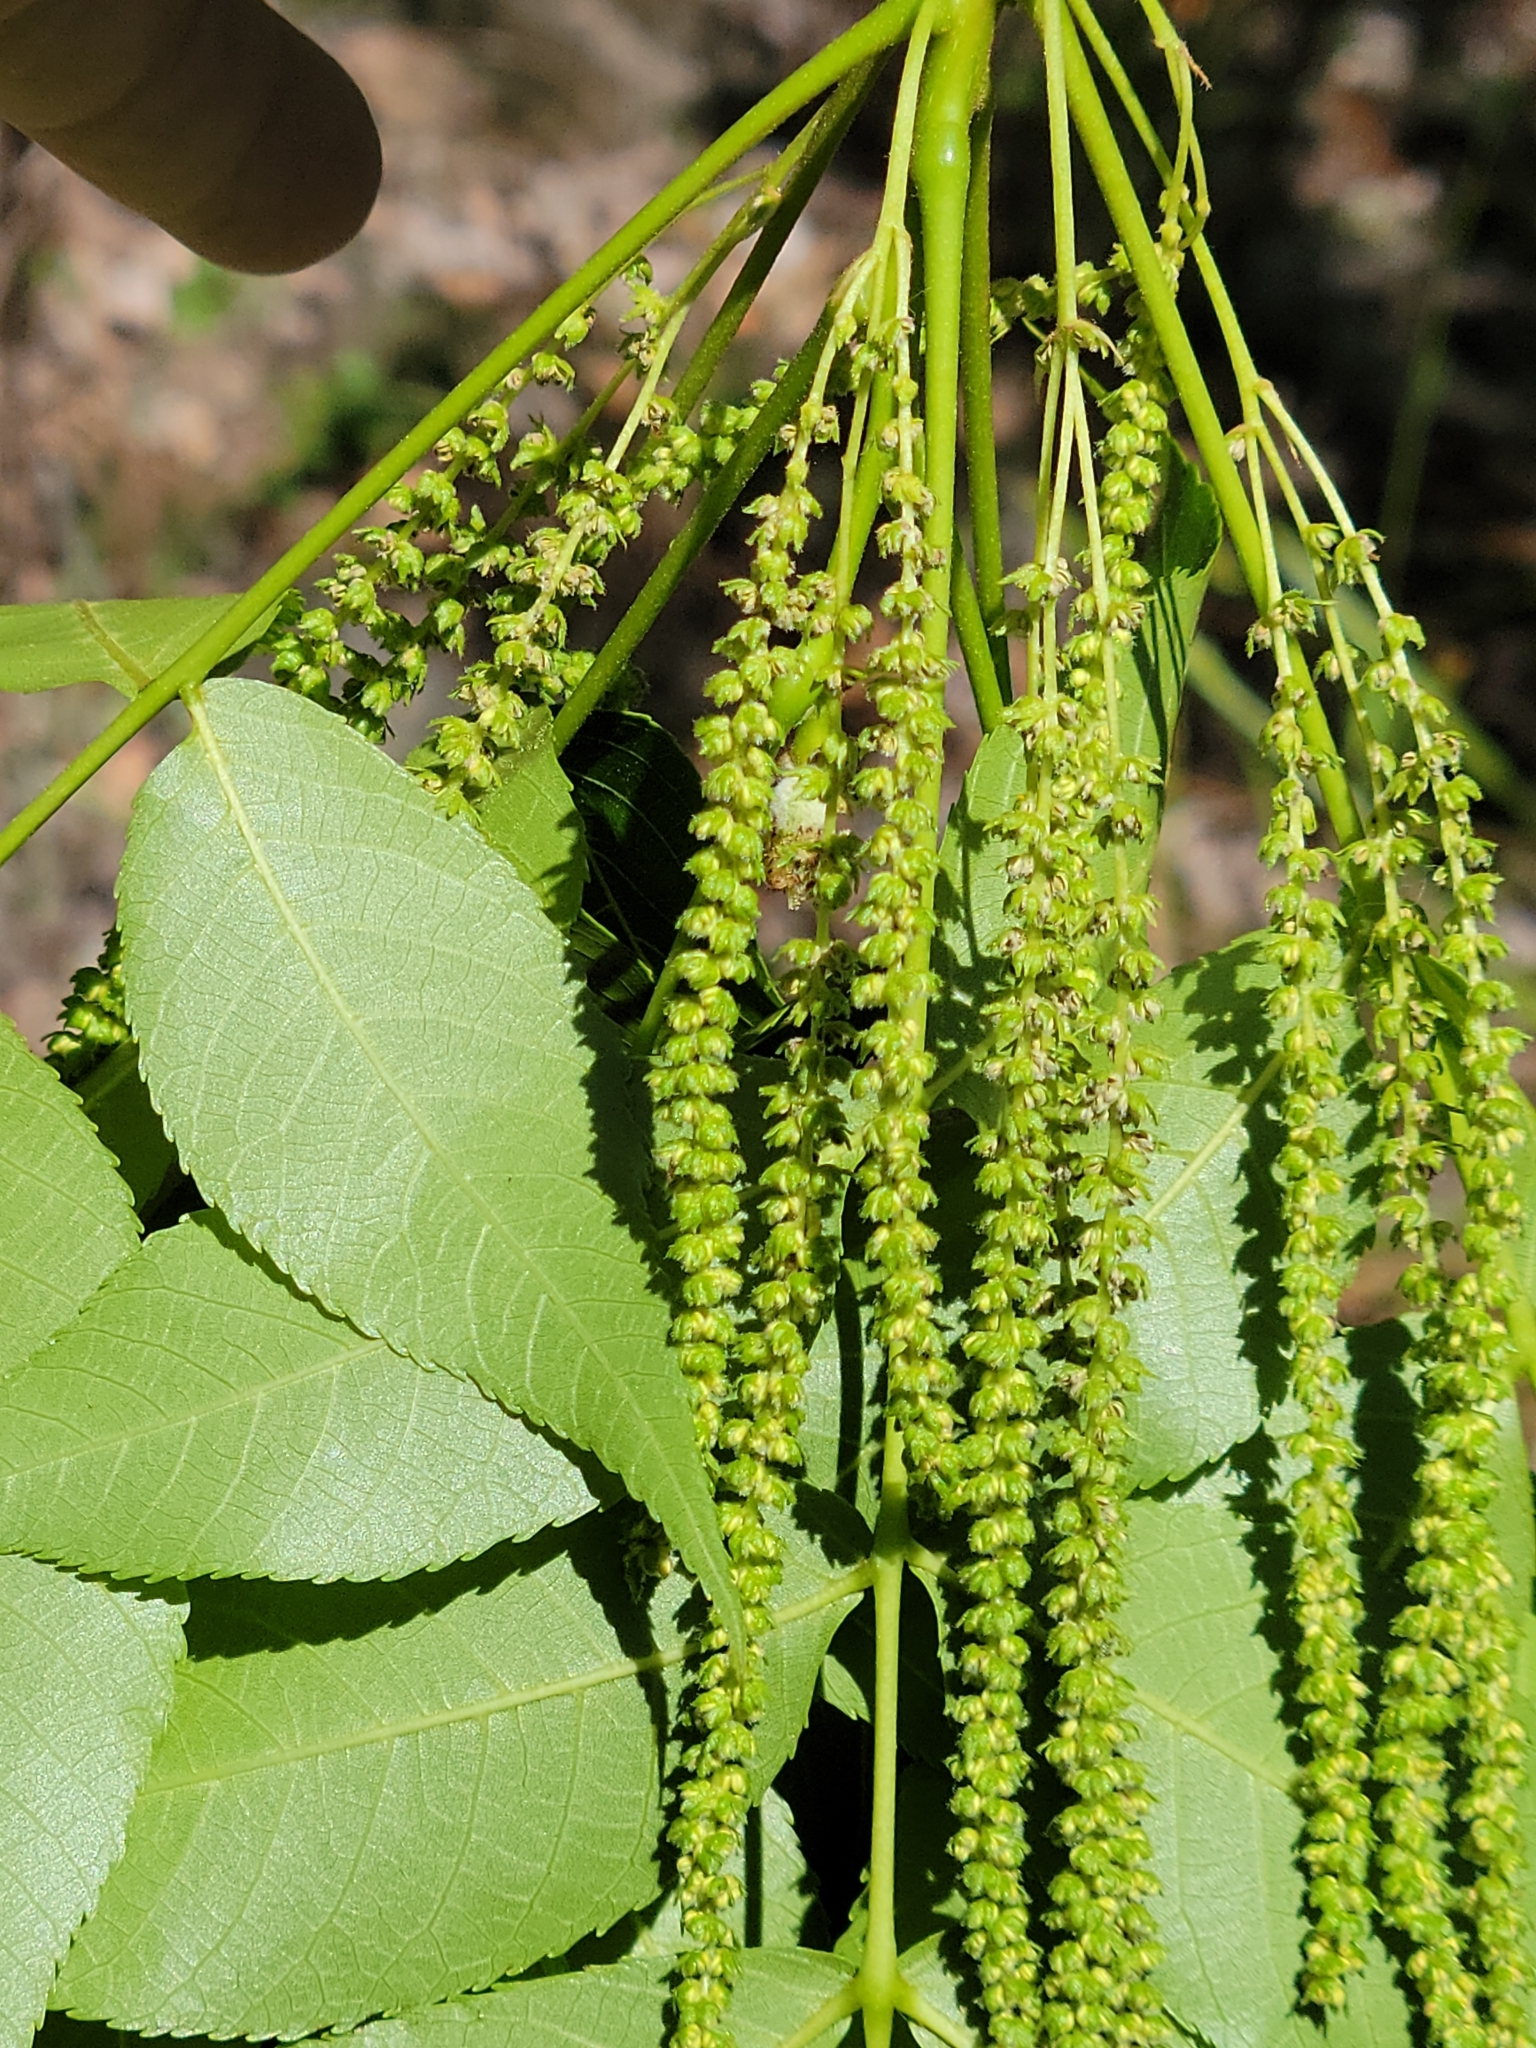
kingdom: Plantae
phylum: Tracheophyta
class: Magnoliopsida
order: Fagales
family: Juglandaceae
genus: Carya
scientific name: Carya glabra
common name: Pignut hickory
